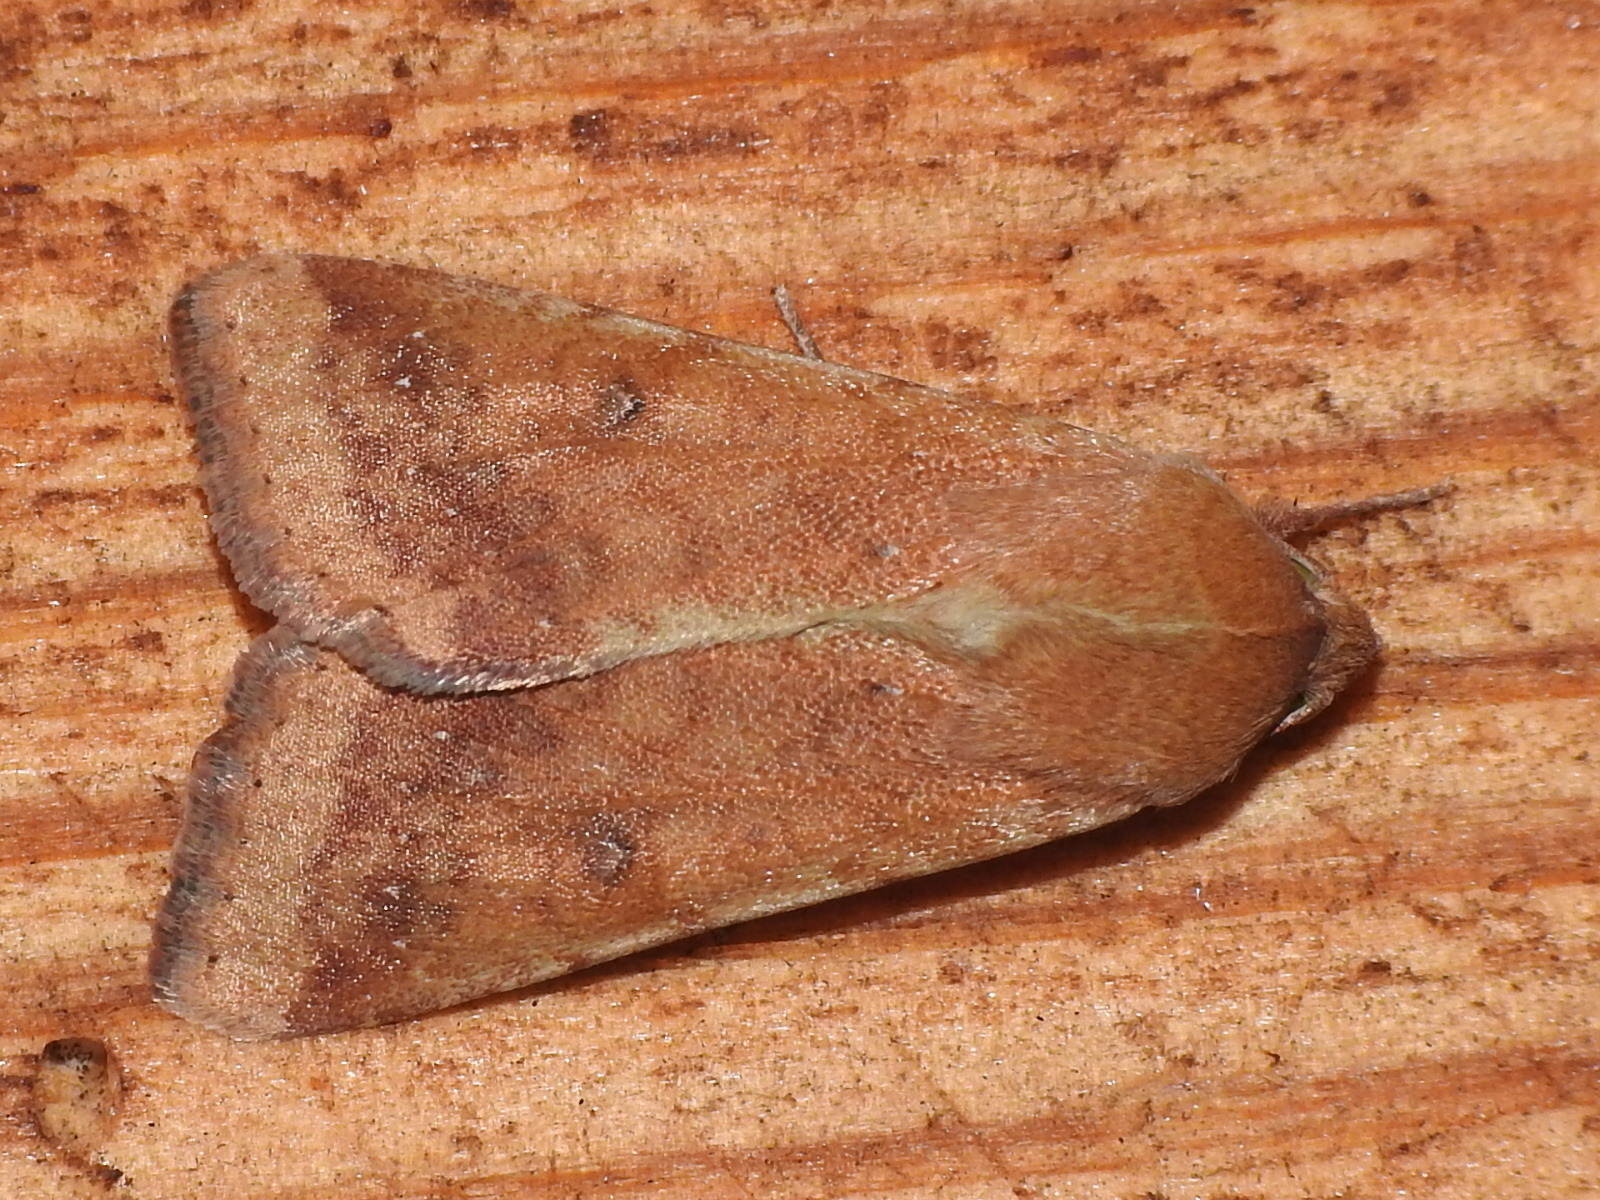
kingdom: Animalia
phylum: Arthropoda
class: Insecta
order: Lepidoptera
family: Noctuidae
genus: Helicoverpa
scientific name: Helicoverpa zea
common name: Bollworm
